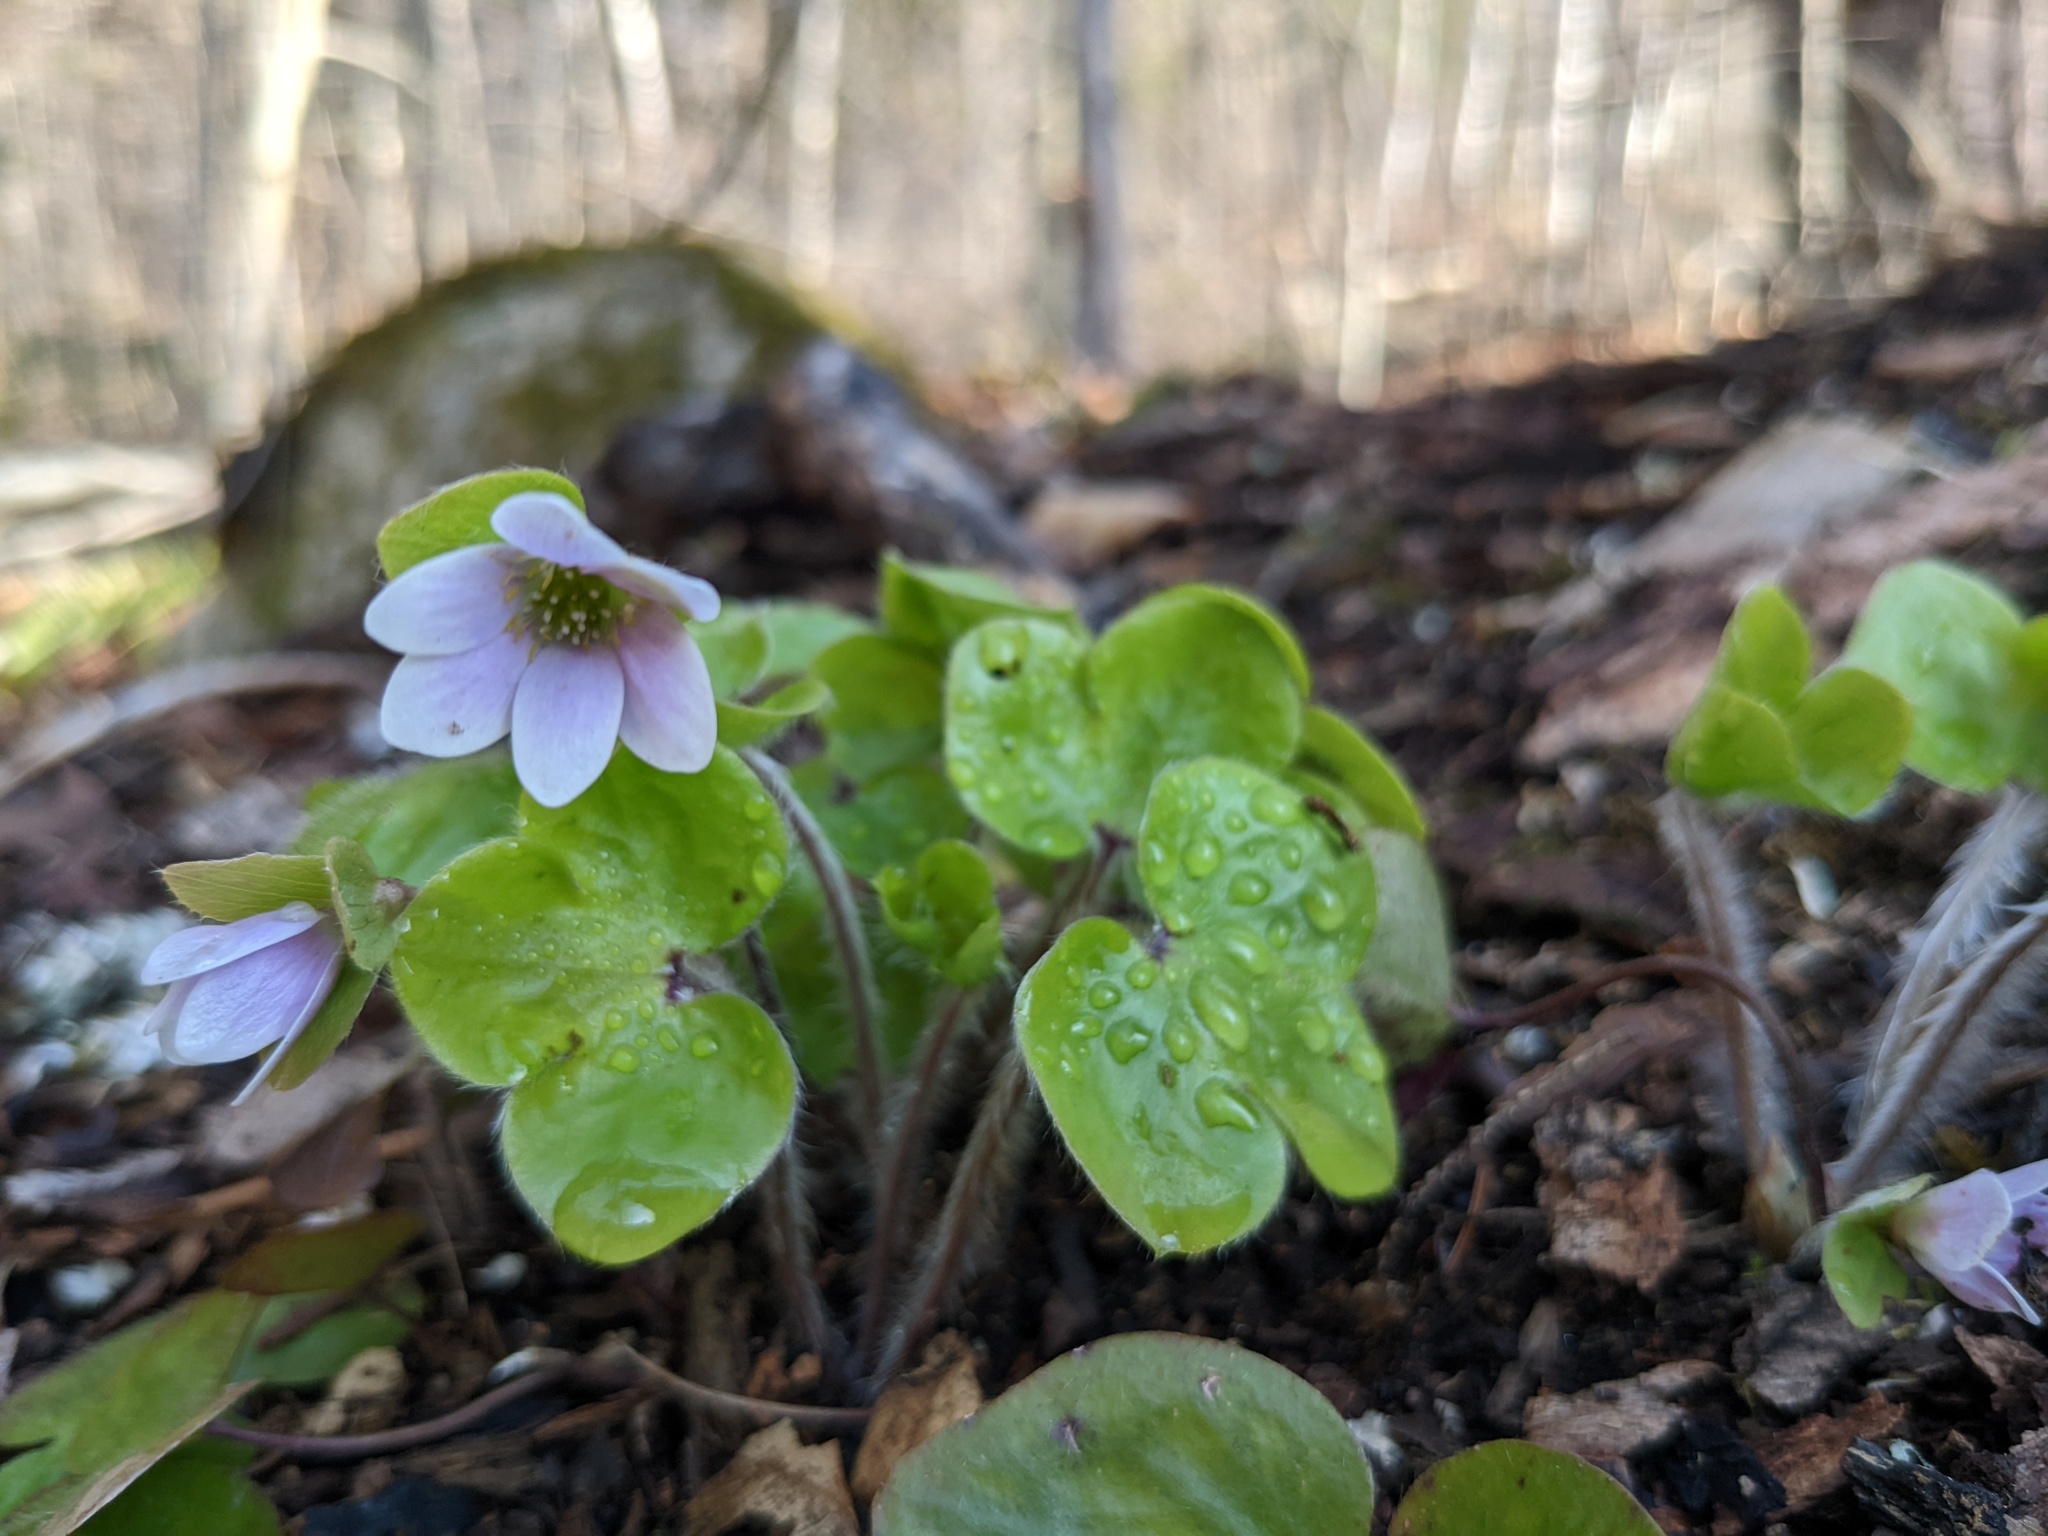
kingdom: Plantae
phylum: Tracheophyta
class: Magnoliopsida
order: Ranunculales
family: Ranunculaceae
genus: Hepatica
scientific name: Hepatica americana
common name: American hepatica
